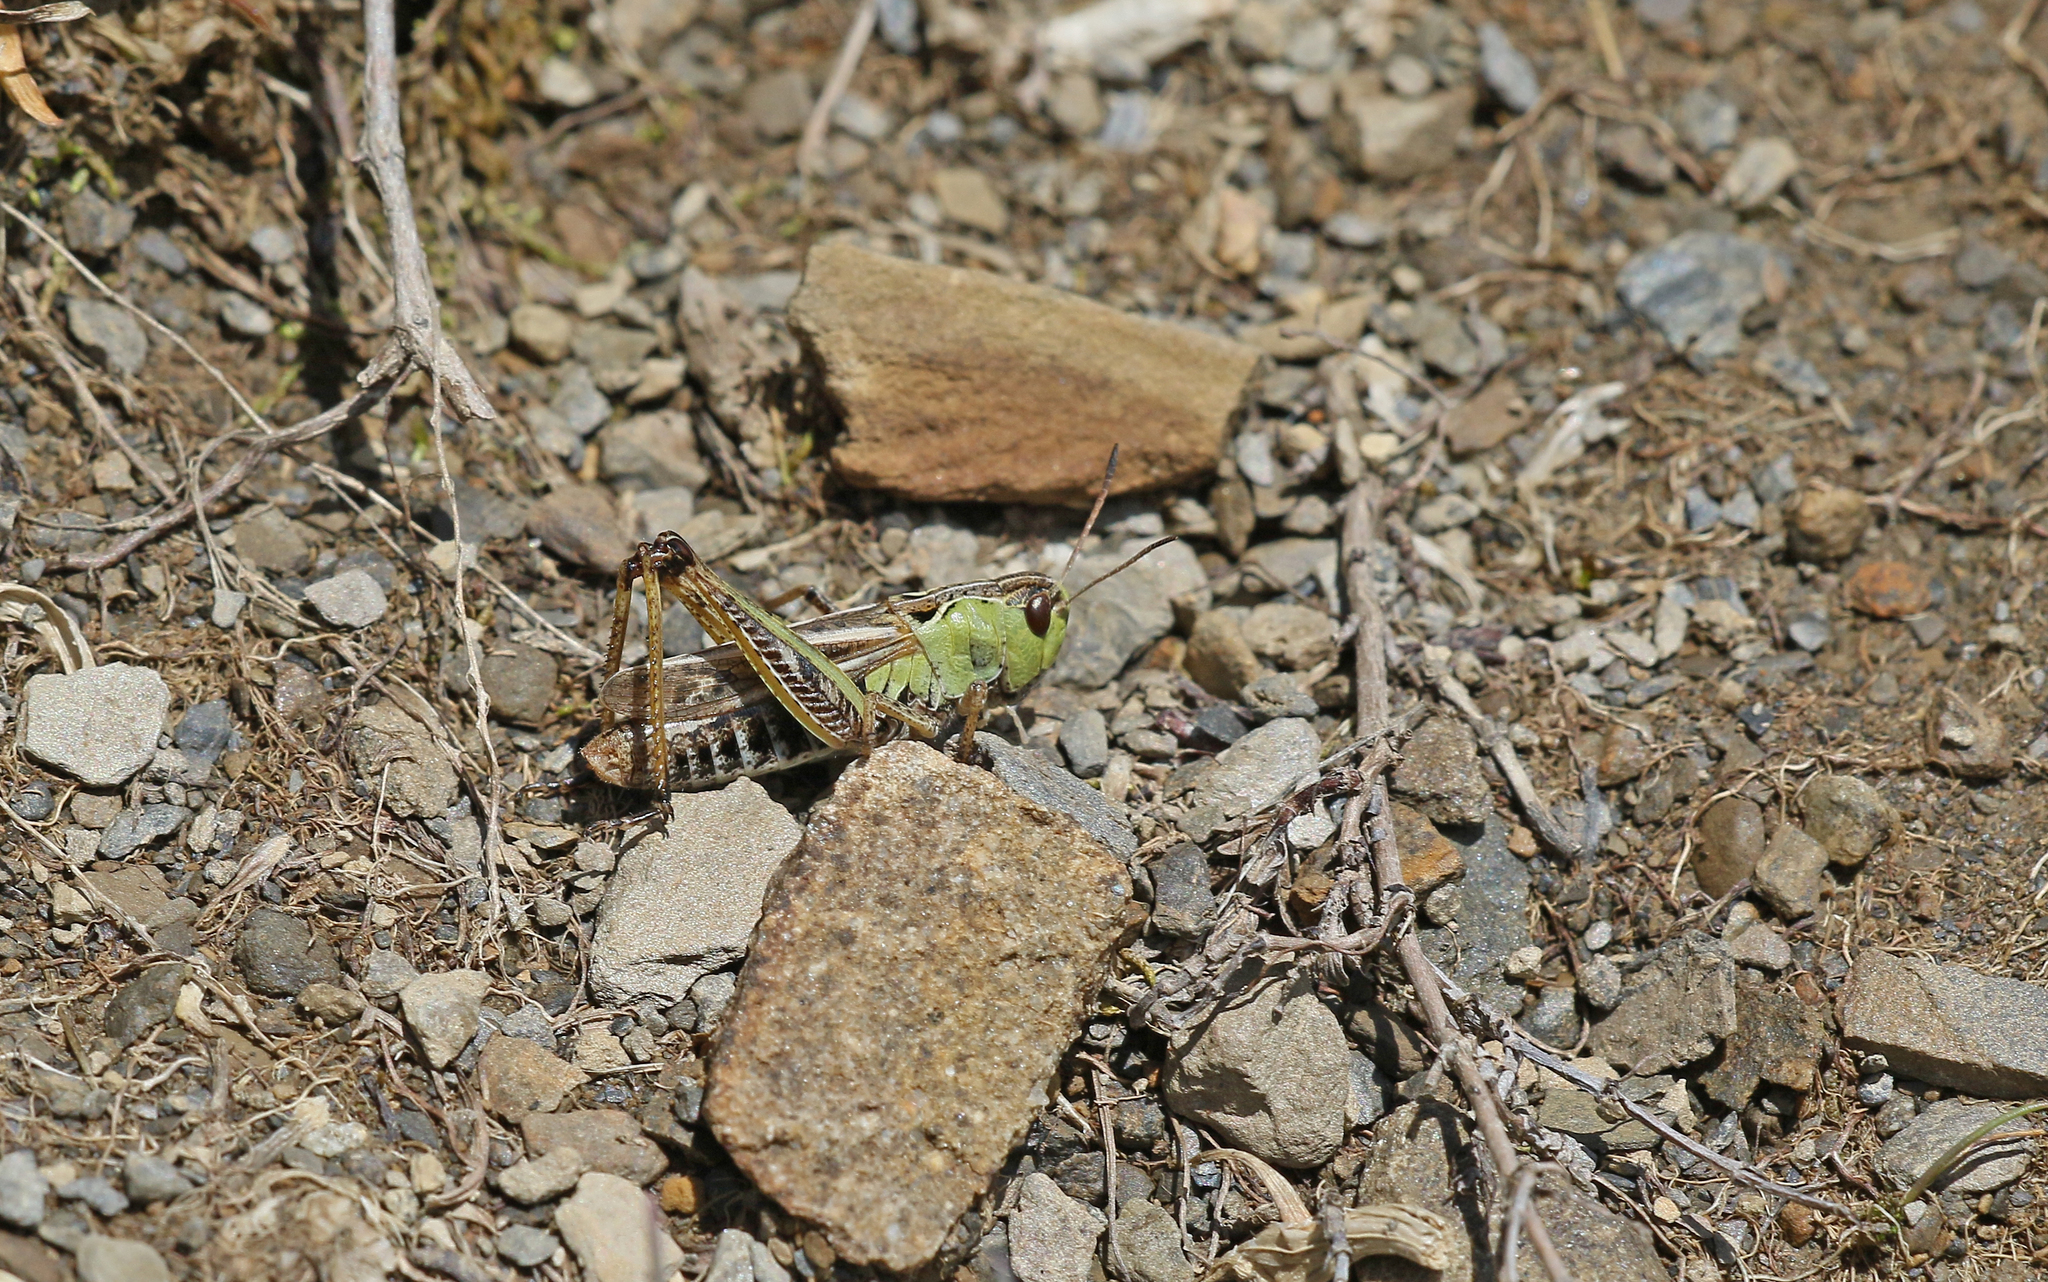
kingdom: Animalia
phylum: Arthropoda
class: Insecta
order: Orthoptera
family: Acrididae
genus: Gomphocerus
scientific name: Gomphocerus sibiricus
